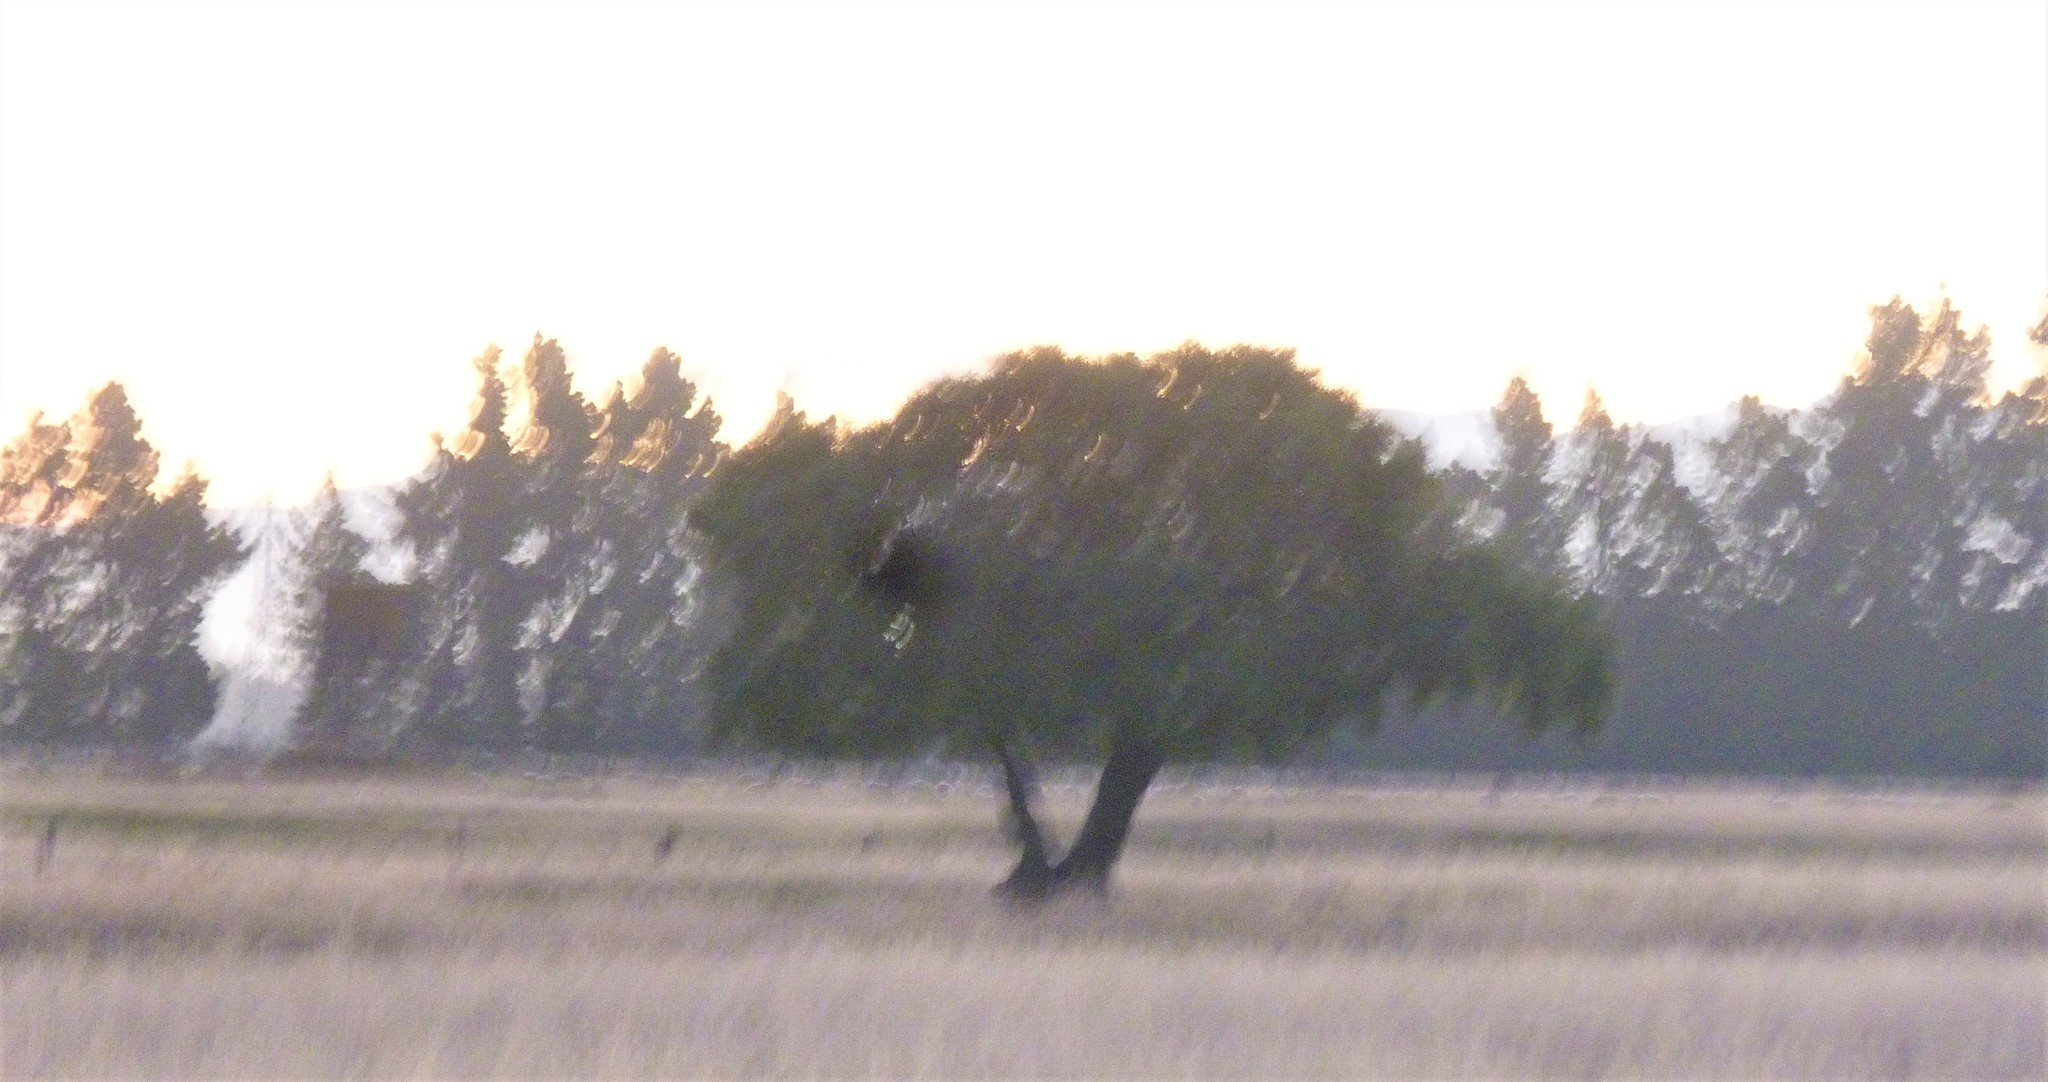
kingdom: Plantae
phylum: Tracheophyta
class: Magnoliopsida
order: Fabales
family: Fabaceae
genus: Sophora
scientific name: Sophora microphylla
